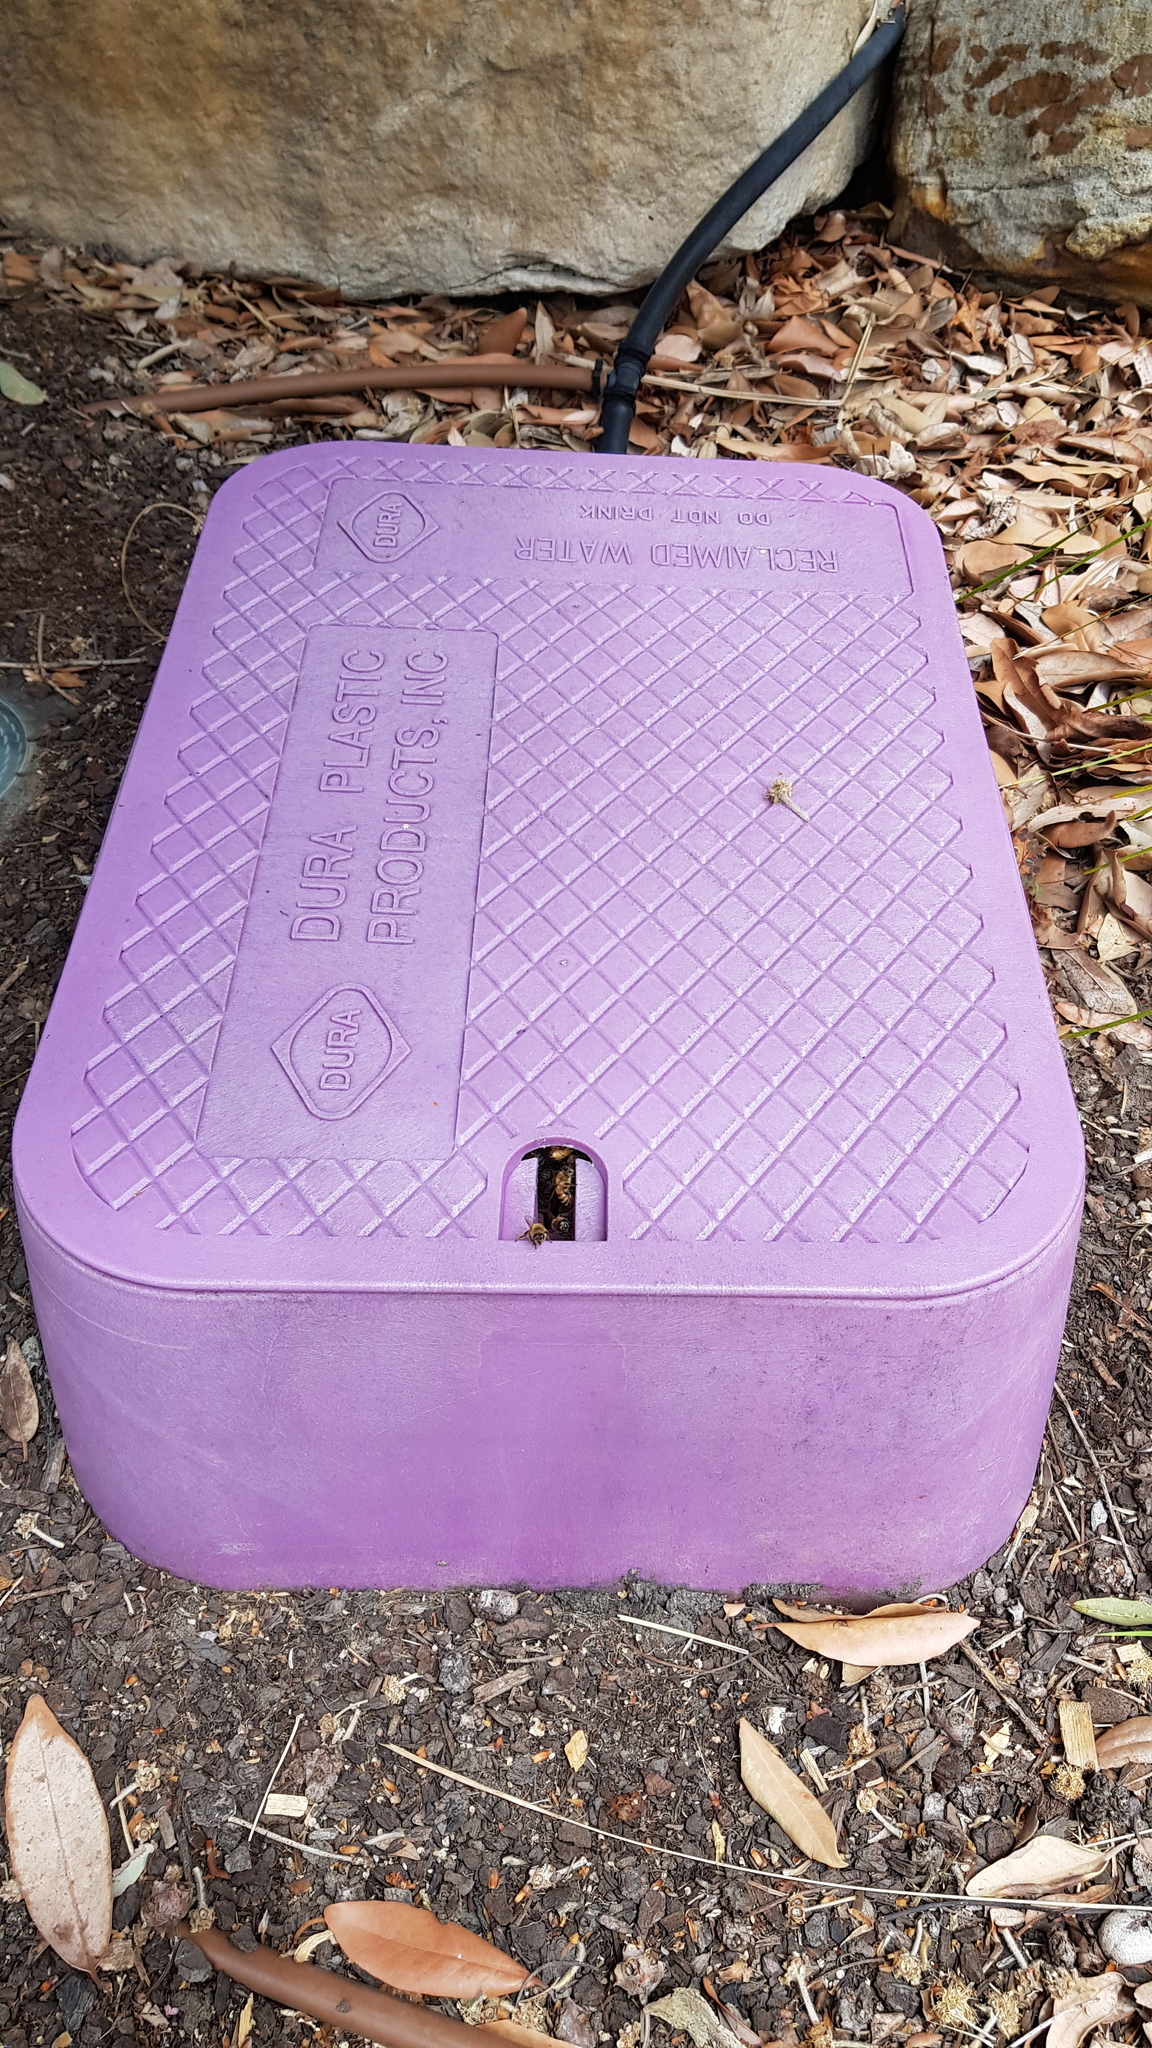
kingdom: Animalia
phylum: Arthropoda
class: Insecta
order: Hymenoptera
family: Apidae
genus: Apis
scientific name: Apis mellifera
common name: Honey bee
